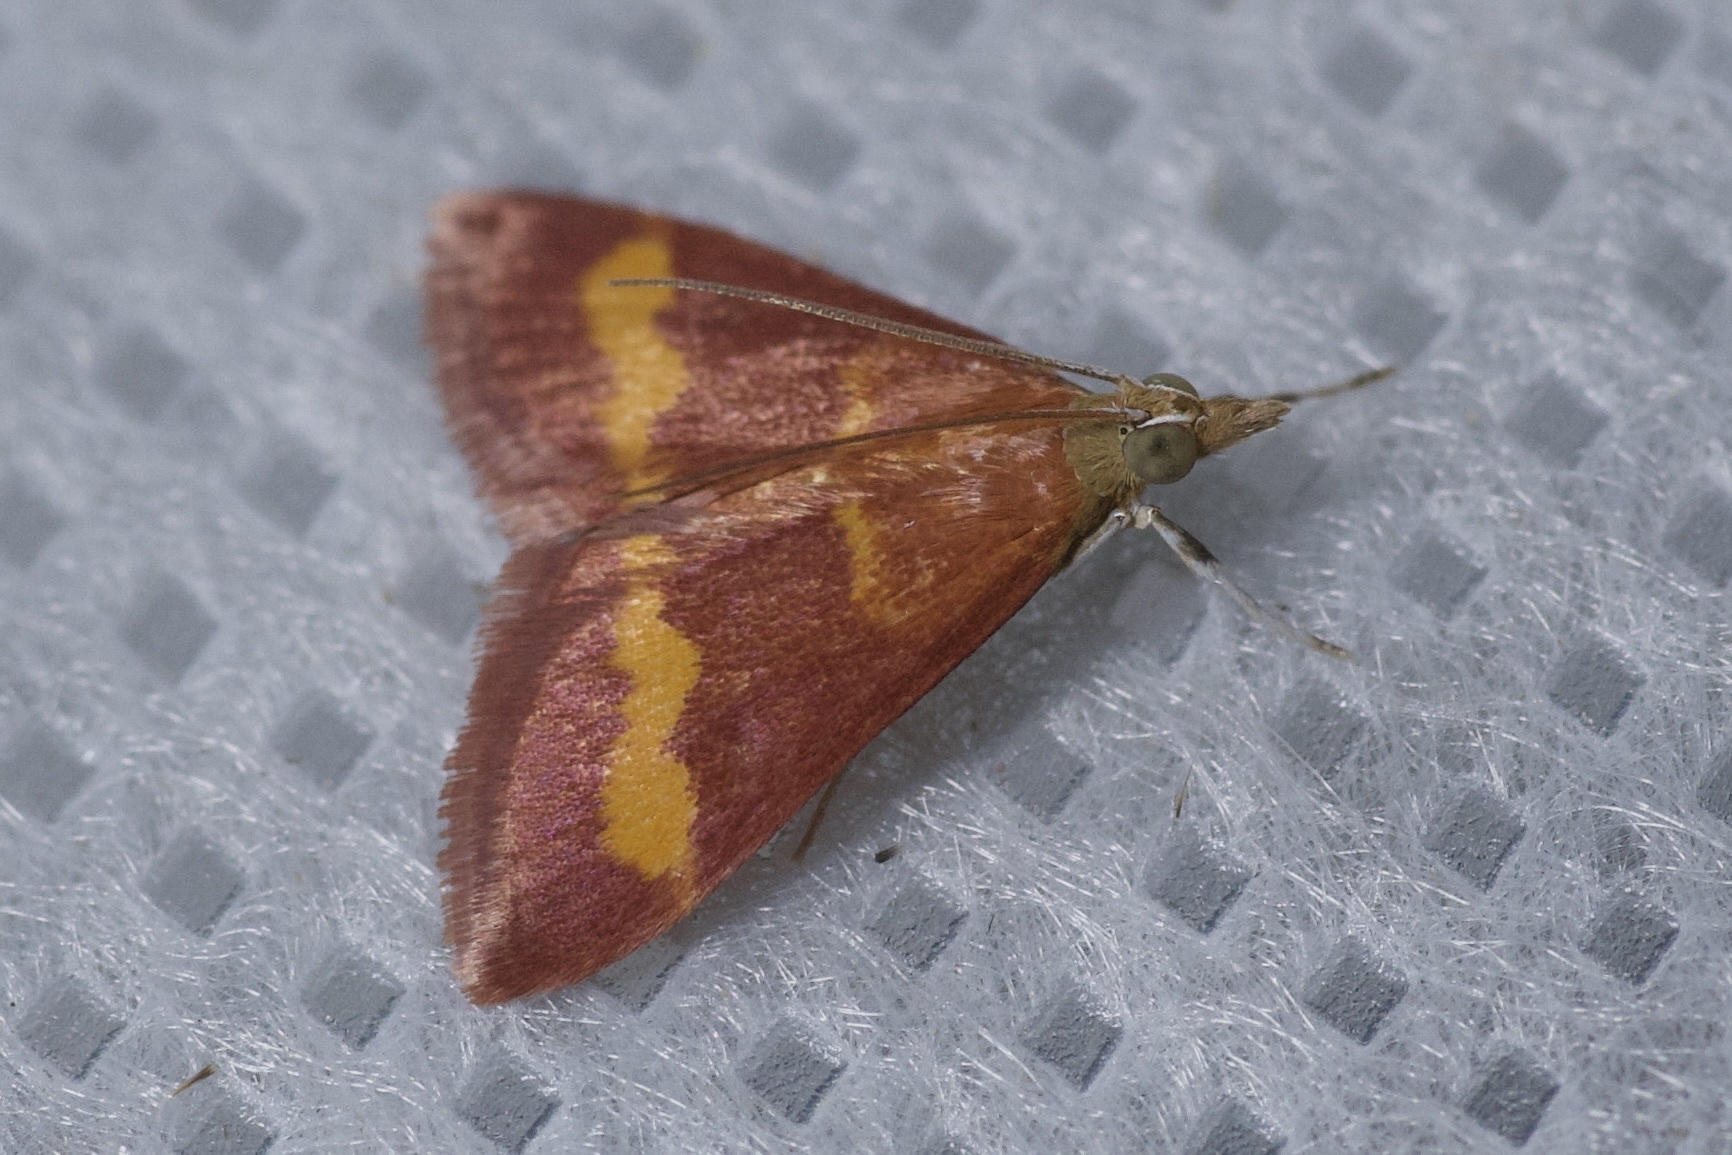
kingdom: Animalia
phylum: Arthropoda
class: Insecta
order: Lepidoptera
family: Crambidae
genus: Pyrausta
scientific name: Pyrausta pseuderosnealis
